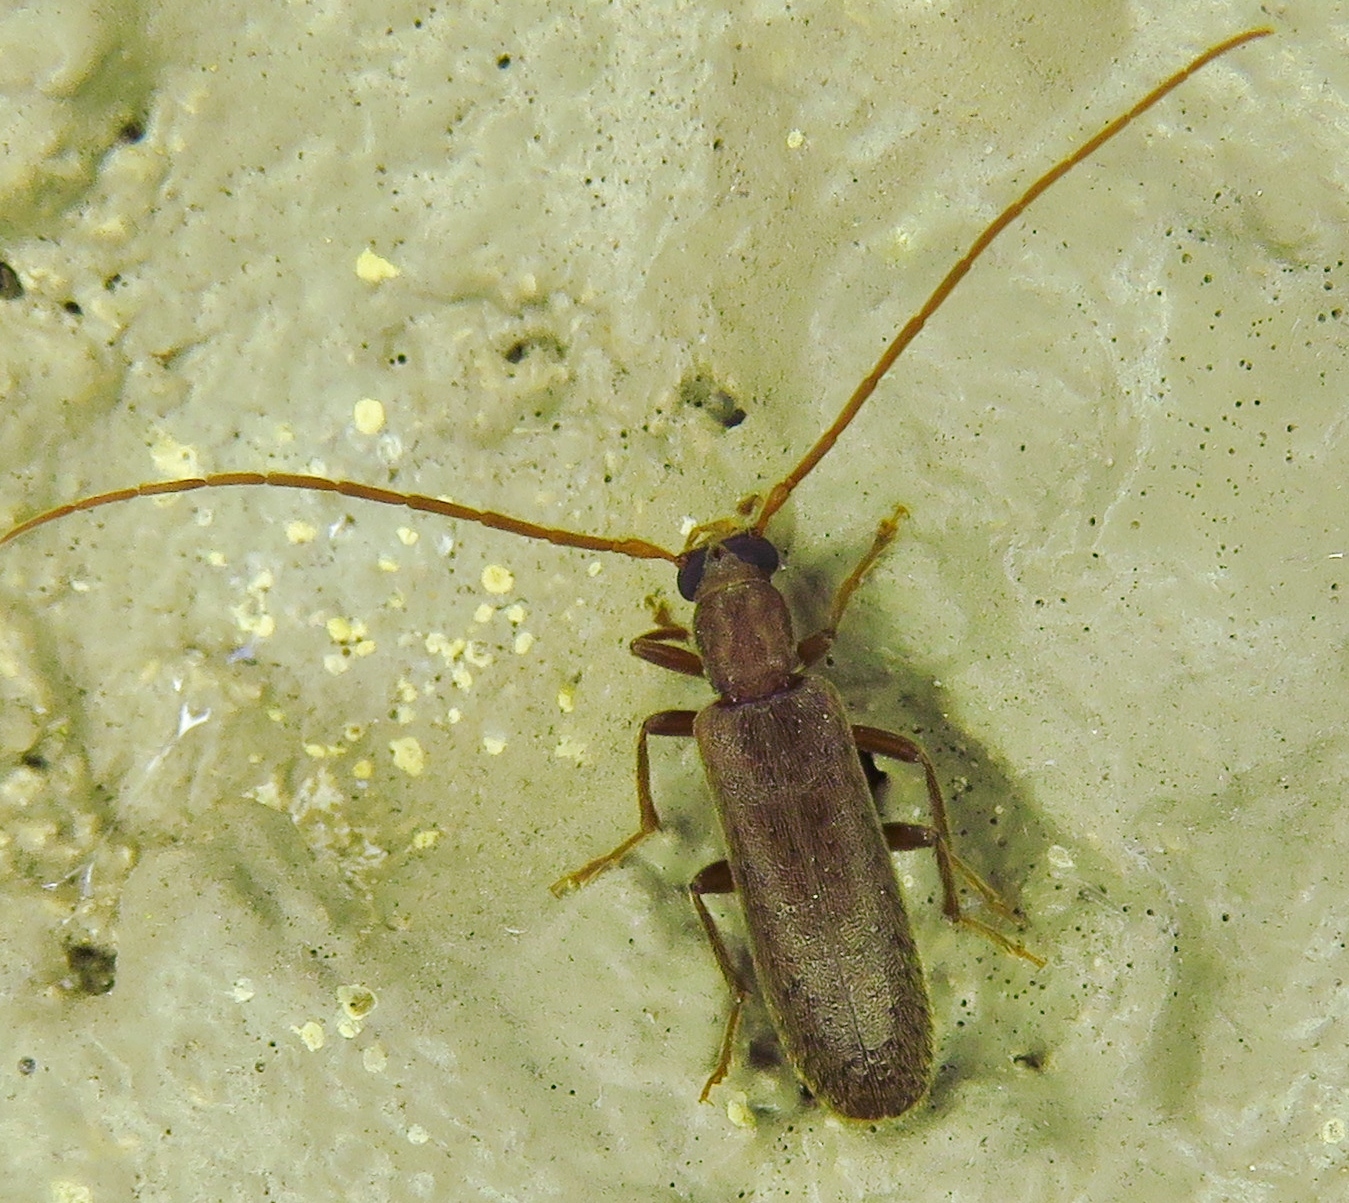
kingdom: Animalia
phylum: Arthropoda
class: Insecta
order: Coleoptera
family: Oedemeridae
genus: Sparedrus
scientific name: Sparedrus aspersus
